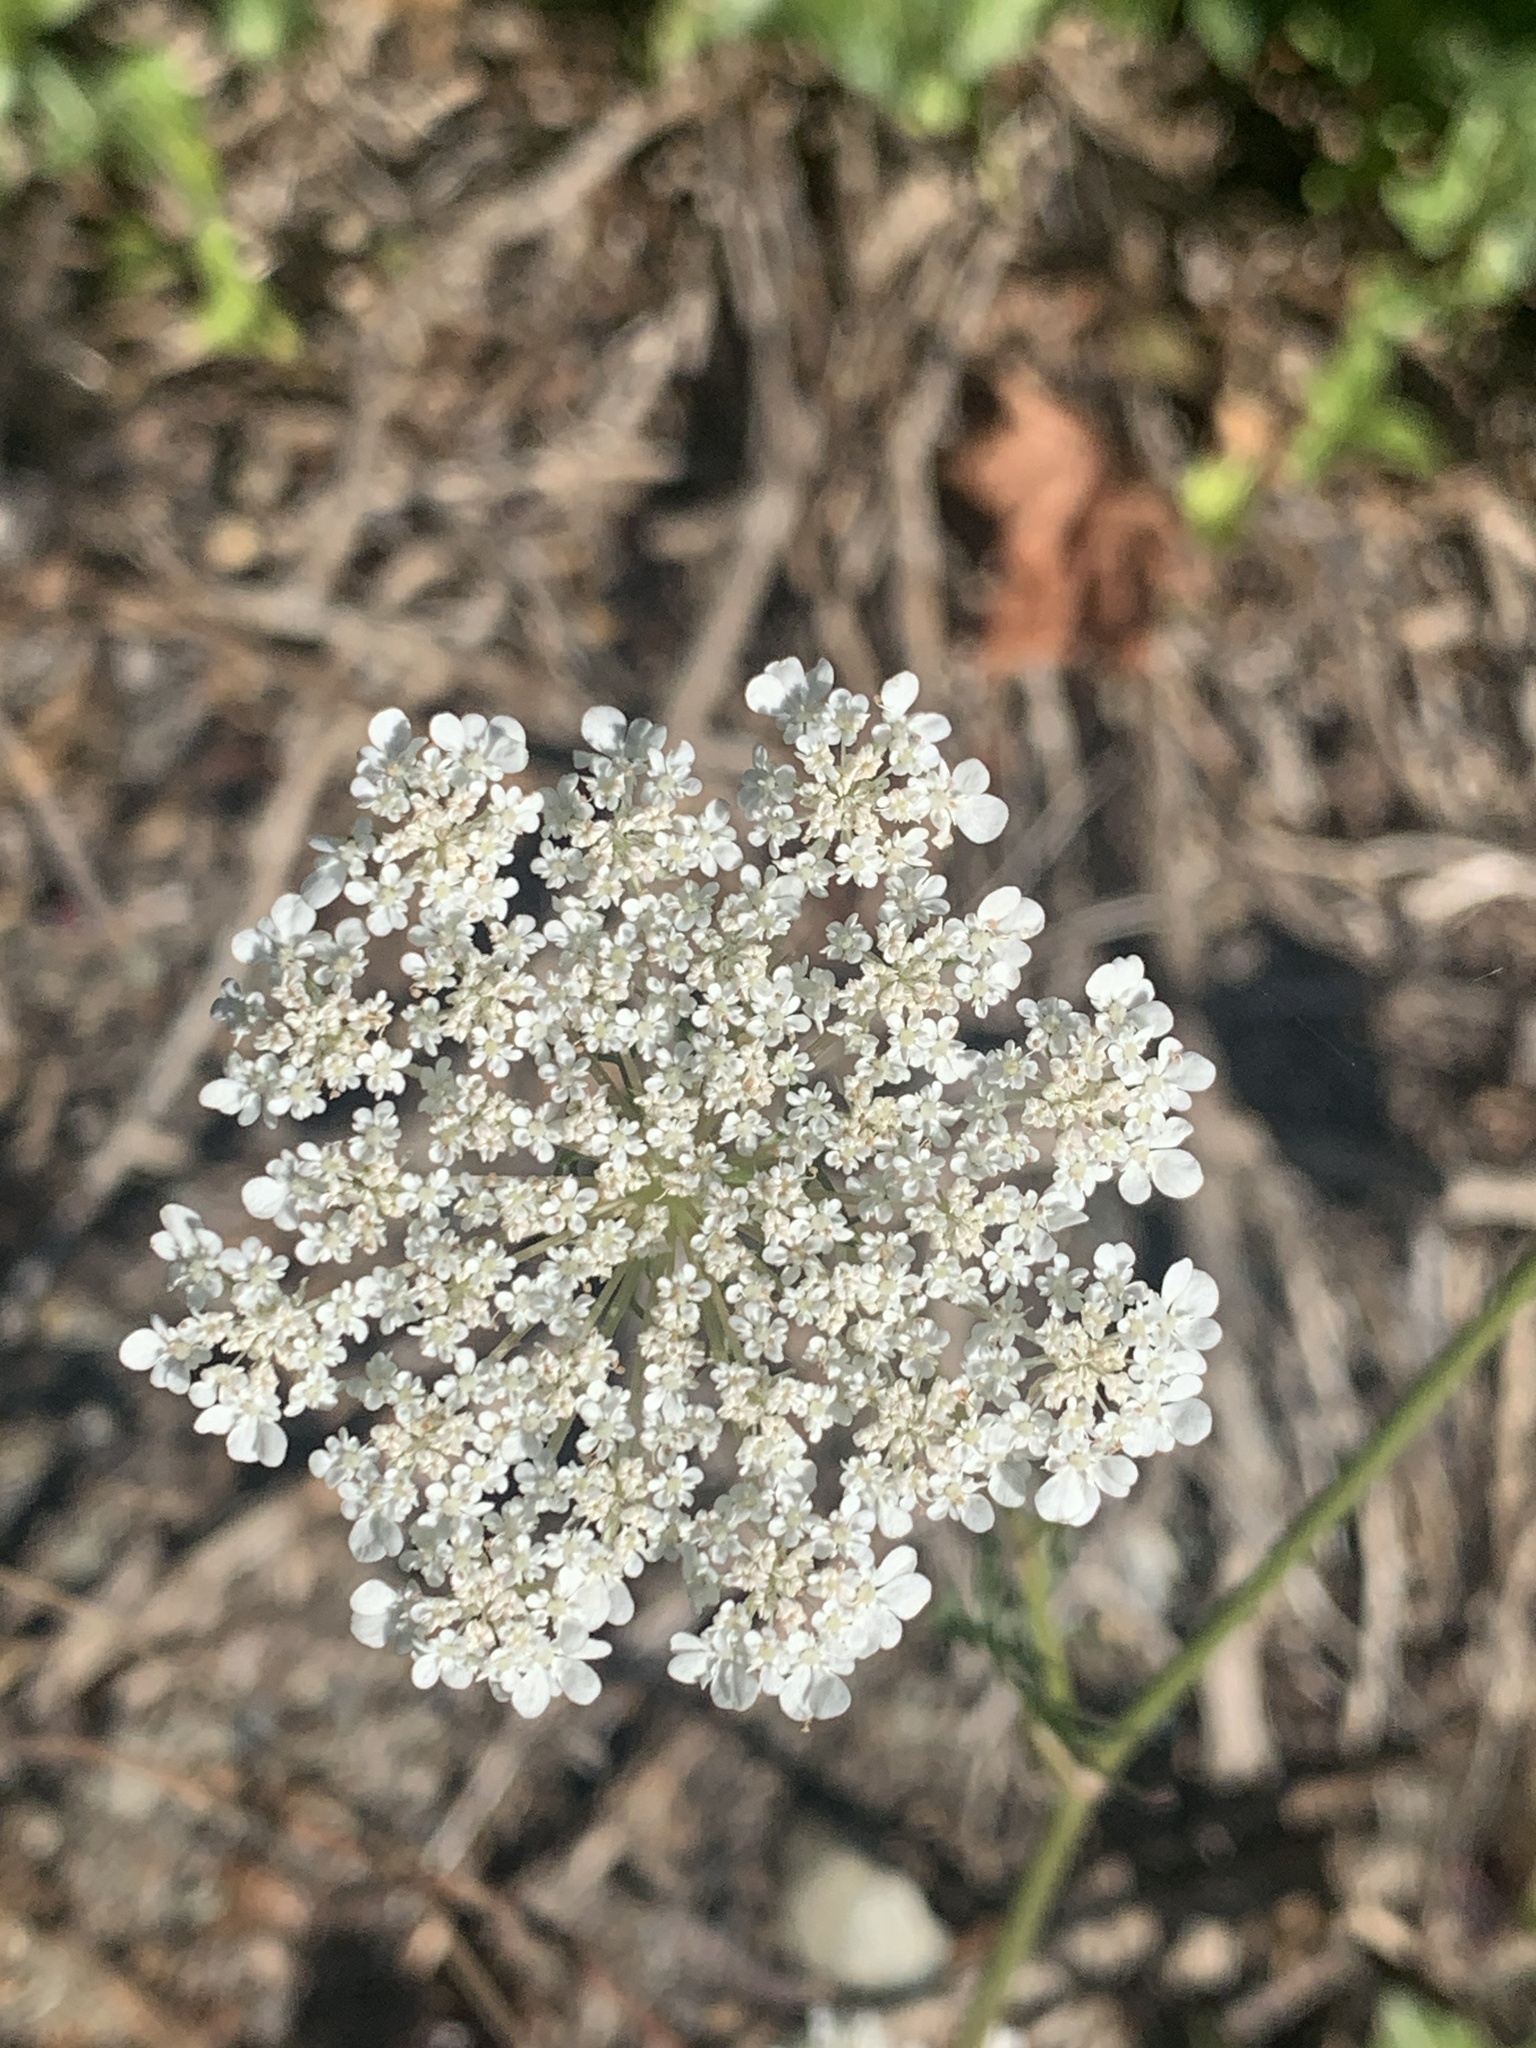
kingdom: Plantae
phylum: Tracheophyta
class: Magnoliopsida
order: Apiales
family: Apiaceae
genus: Daucus
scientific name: Daucus carota
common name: Wild carrot
